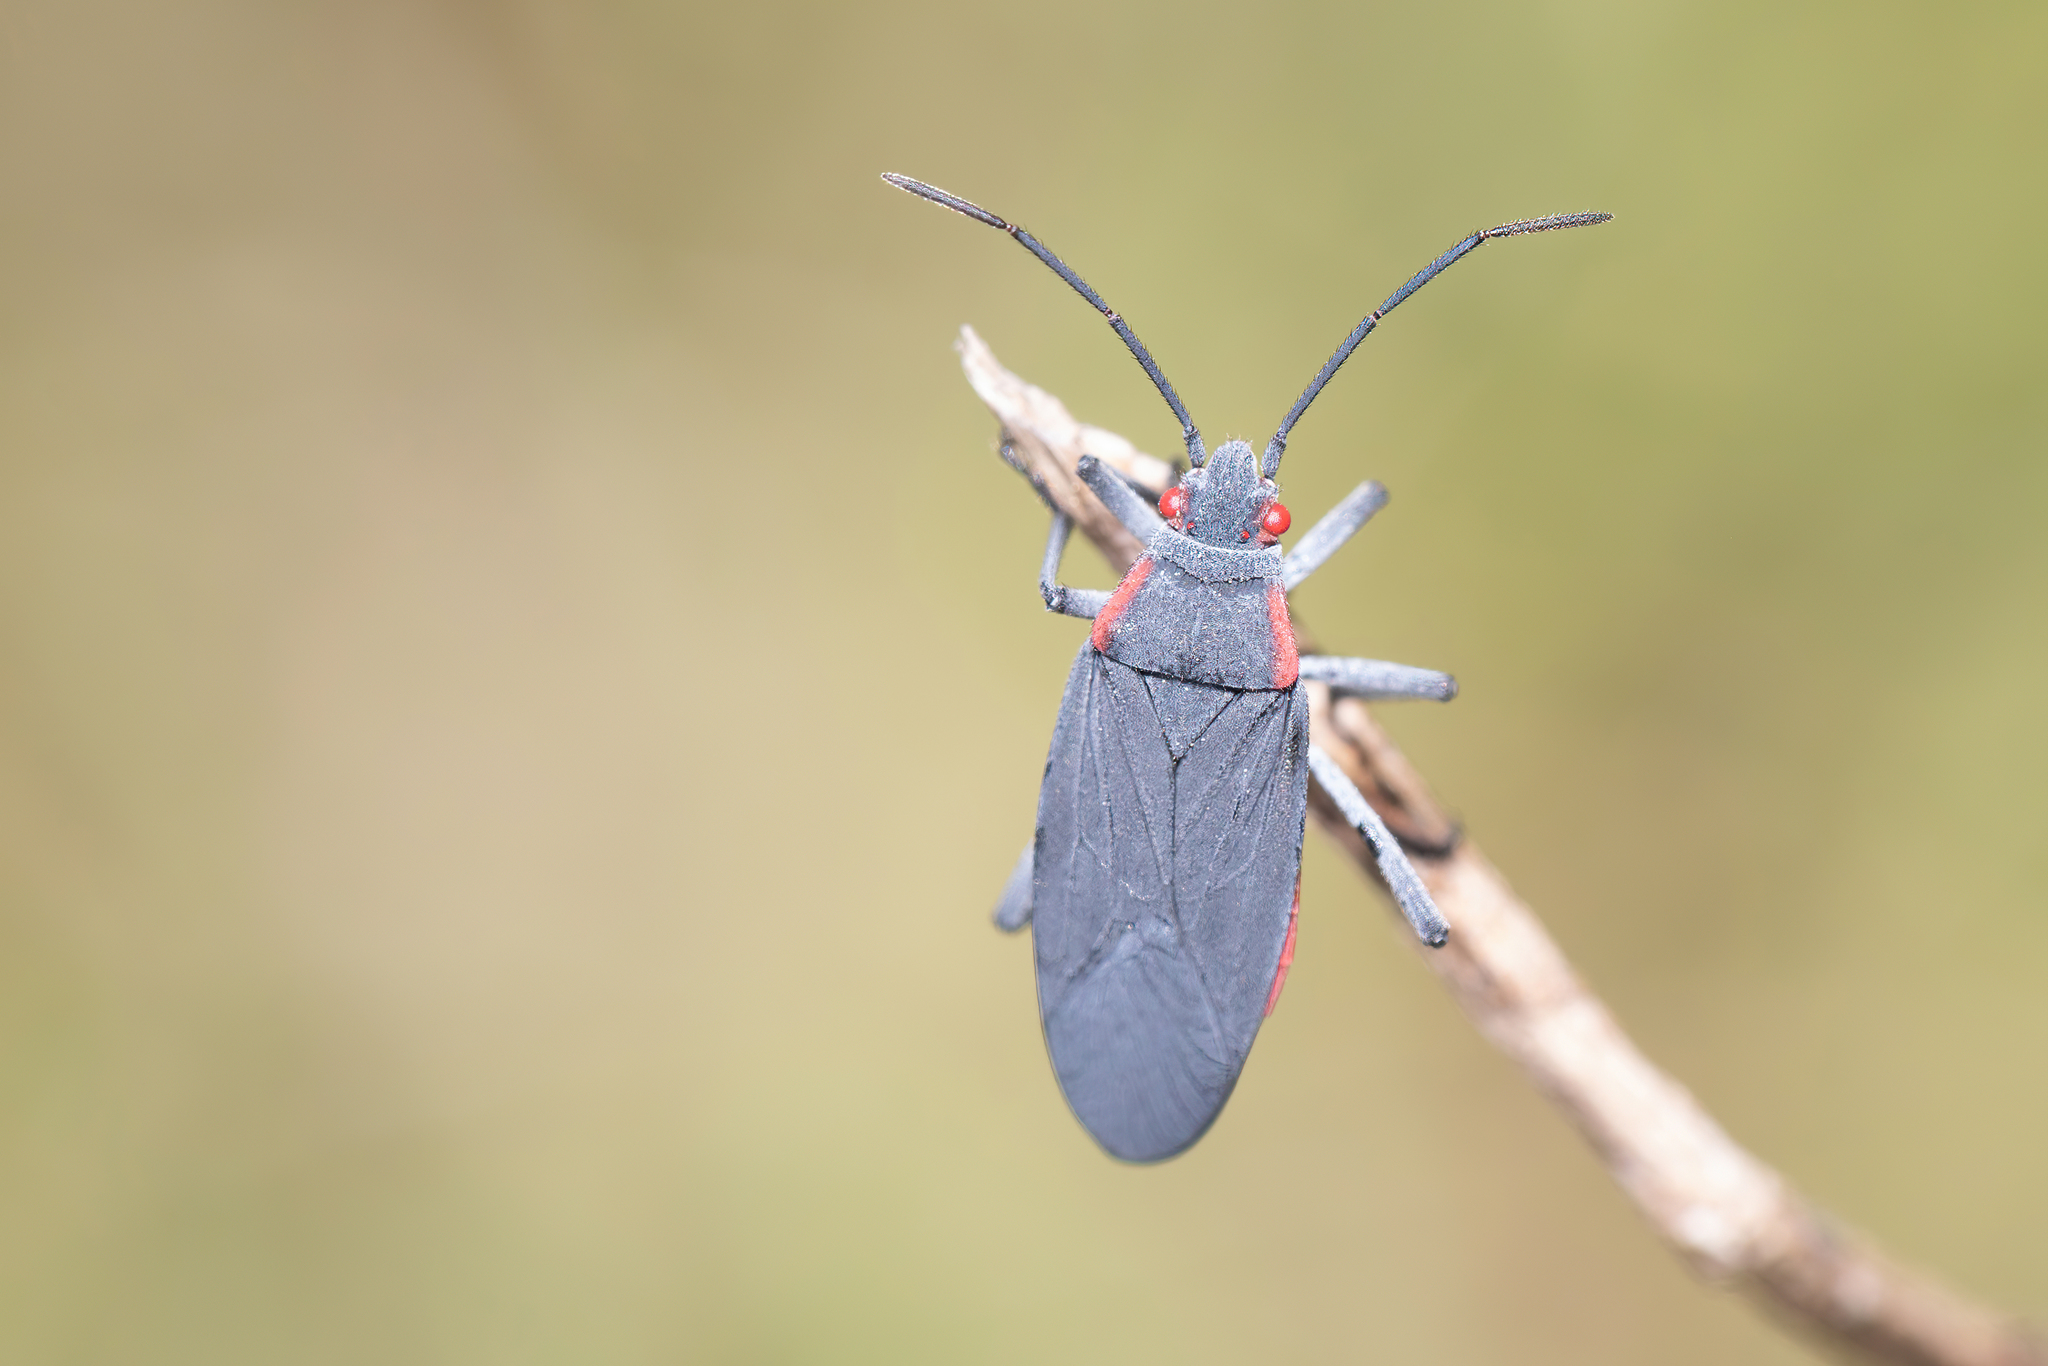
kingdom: Animalia
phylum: Arthropoda
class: Insecta
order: Hemiptera
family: Rhopalidae
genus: Jadera
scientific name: Jadera haematoloma
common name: Red-shouldered bug
